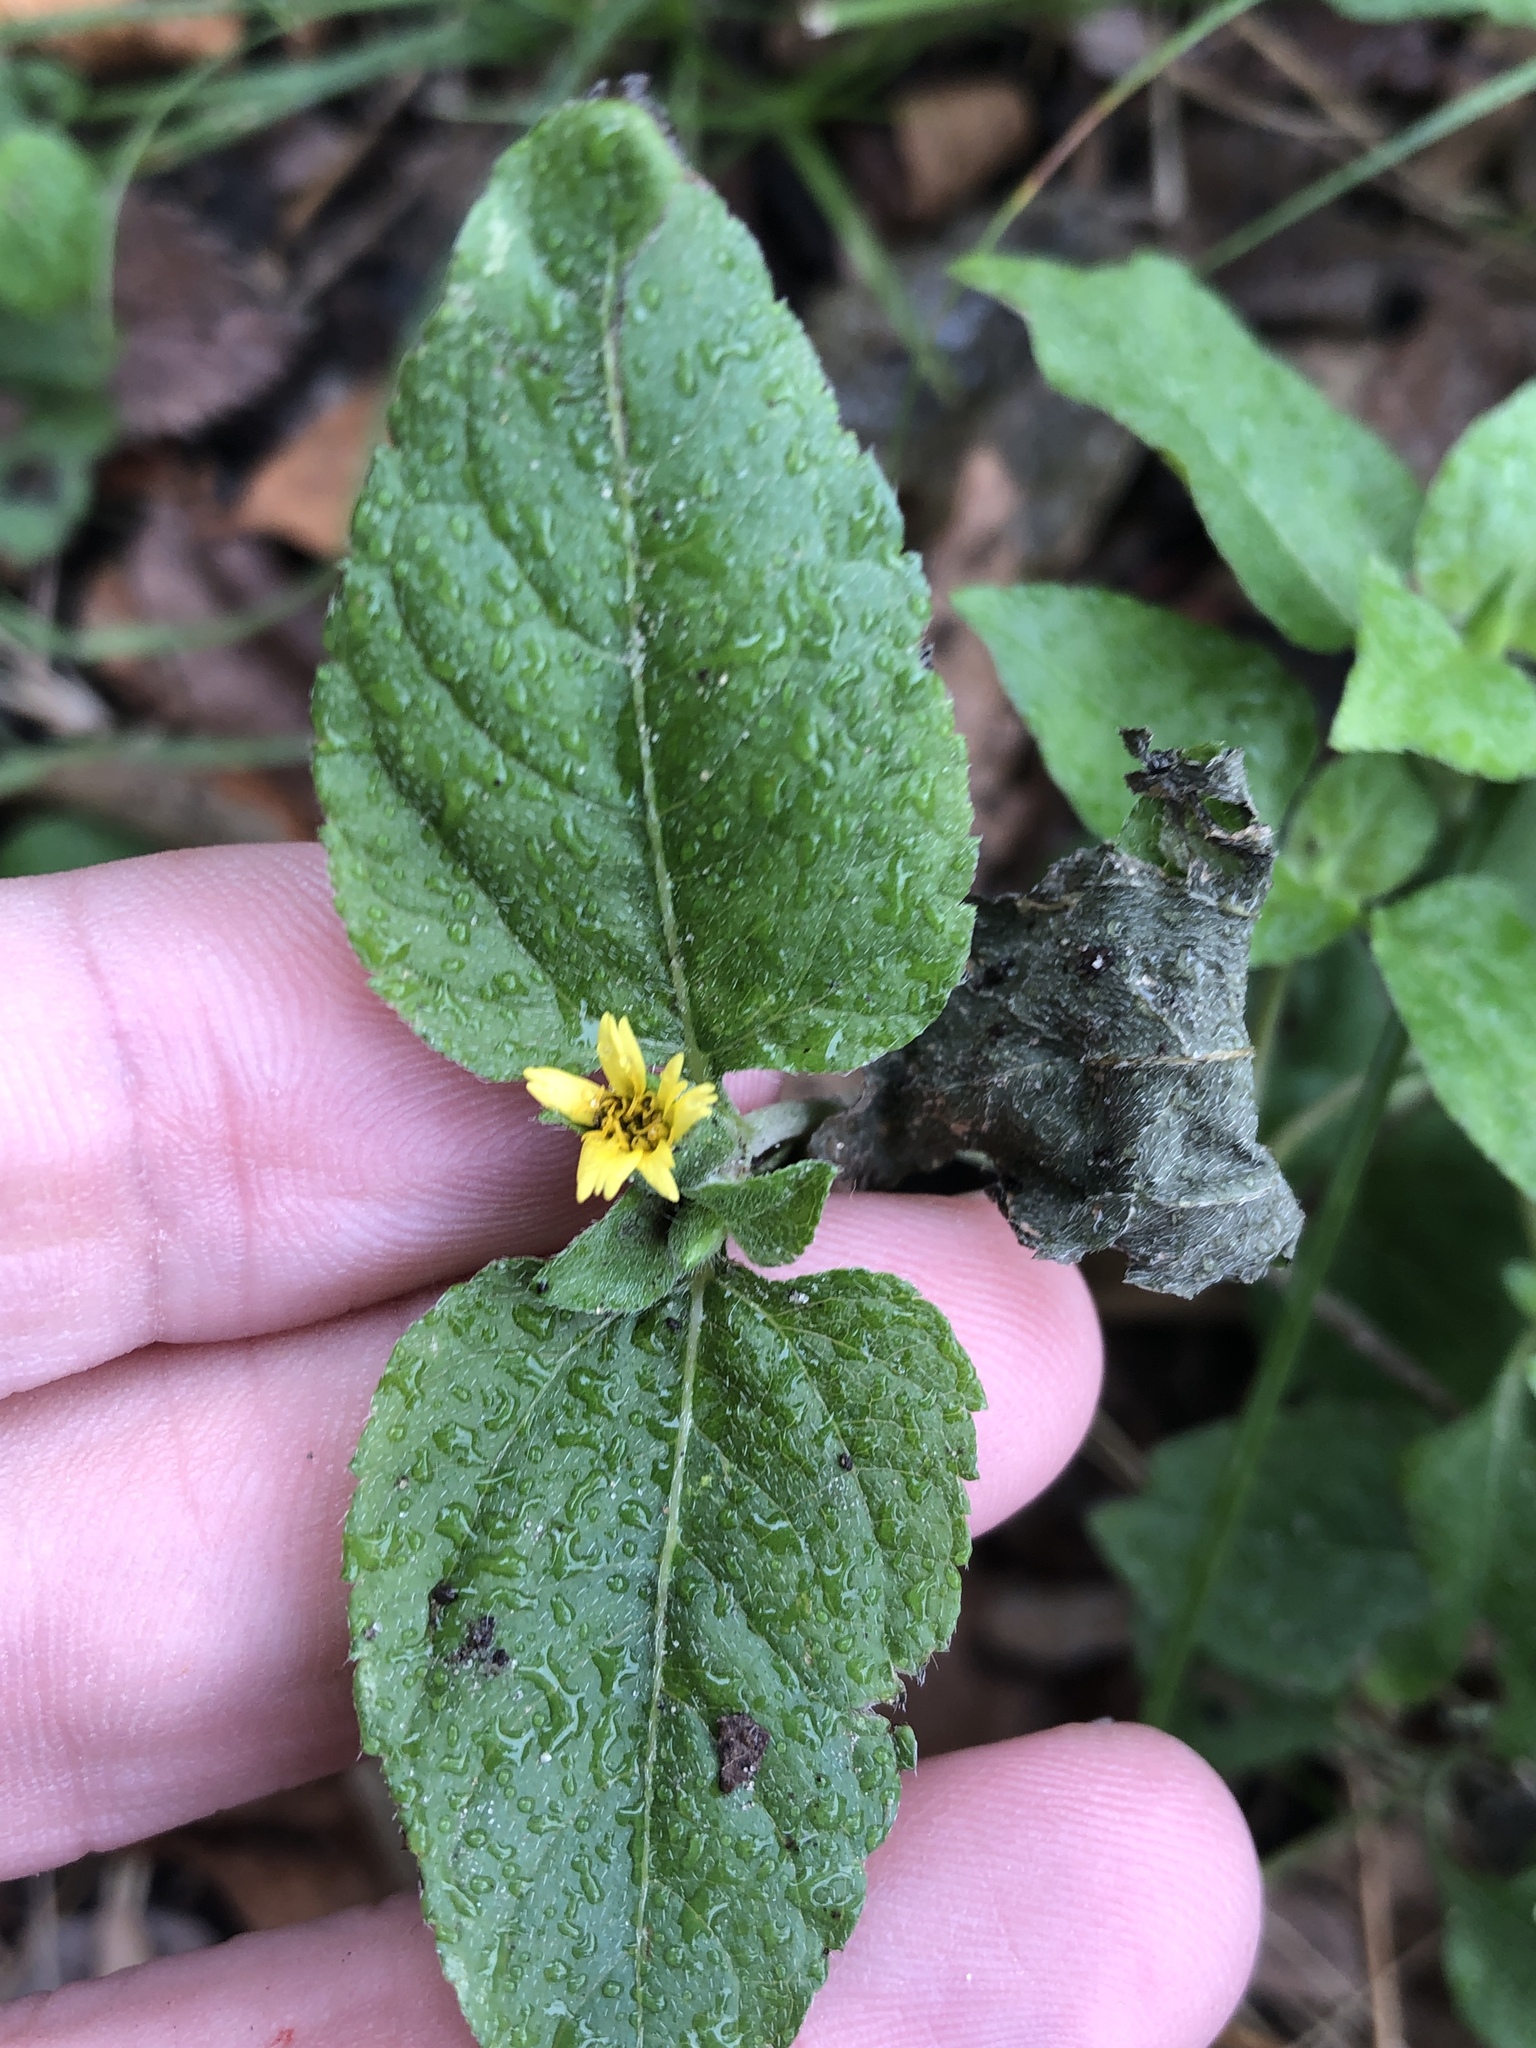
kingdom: Plantae
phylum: Tracheophyta
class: Magnoliopsida
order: Asterales
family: Asteraceae
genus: Calyptocarpus
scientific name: Calyptocarpus vialis
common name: Straggler daisy
